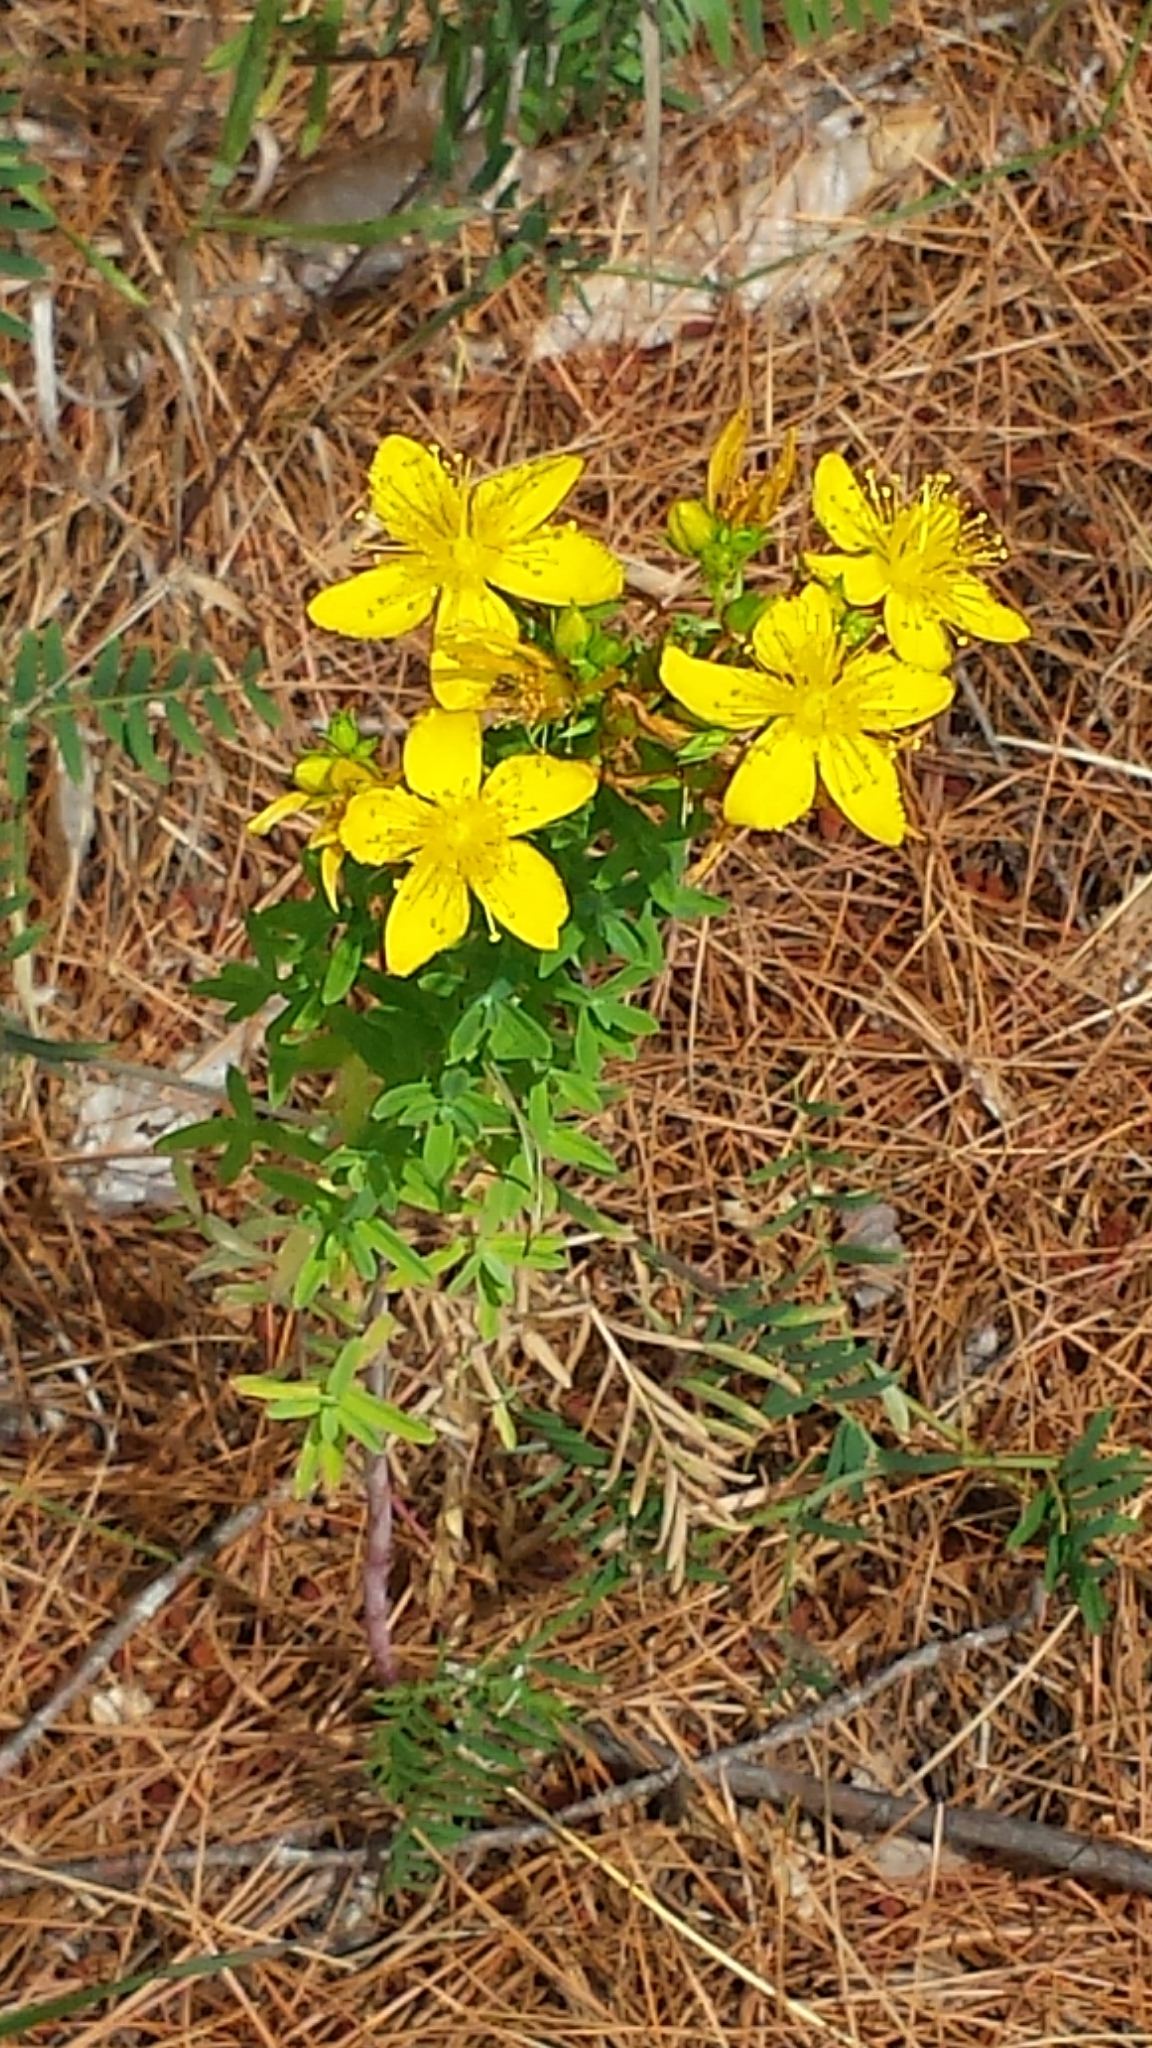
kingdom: Plantae
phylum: Tracheophyta
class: Magnoliopsida
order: Malpighiales
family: Hypericaceae
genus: Hypericum
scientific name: Hypericum perforatum
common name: Common st. johnswort
